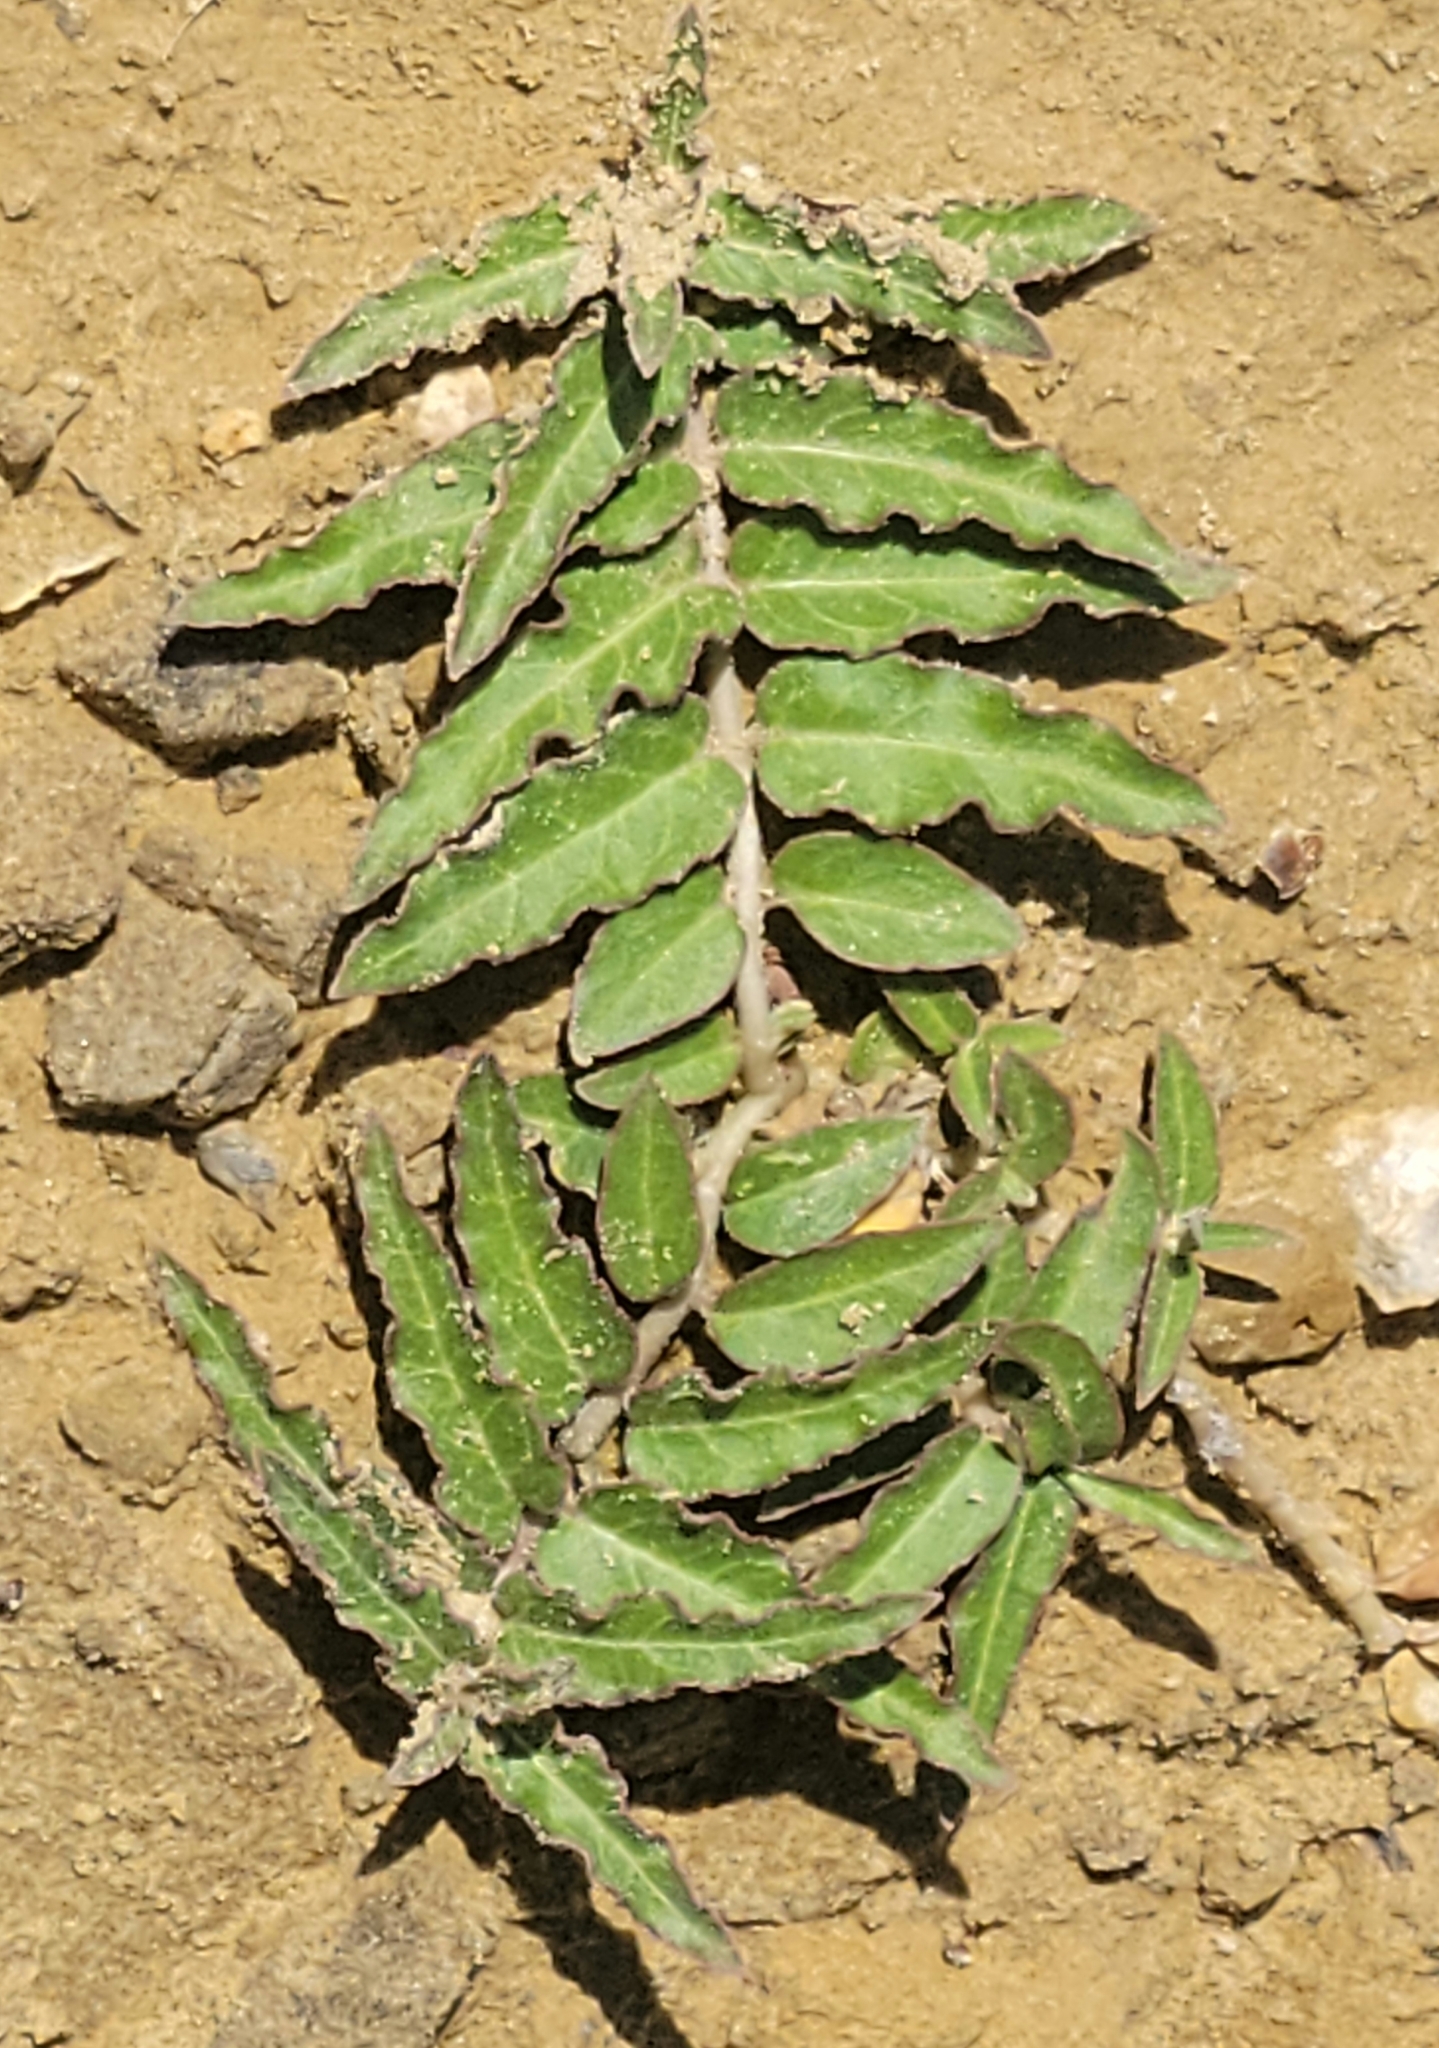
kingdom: Plantae
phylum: Tracheophyta
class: Magnoliopsida
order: Gentianales
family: Apocynaceae
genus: Asclepias
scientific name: Asclepias prostrata
